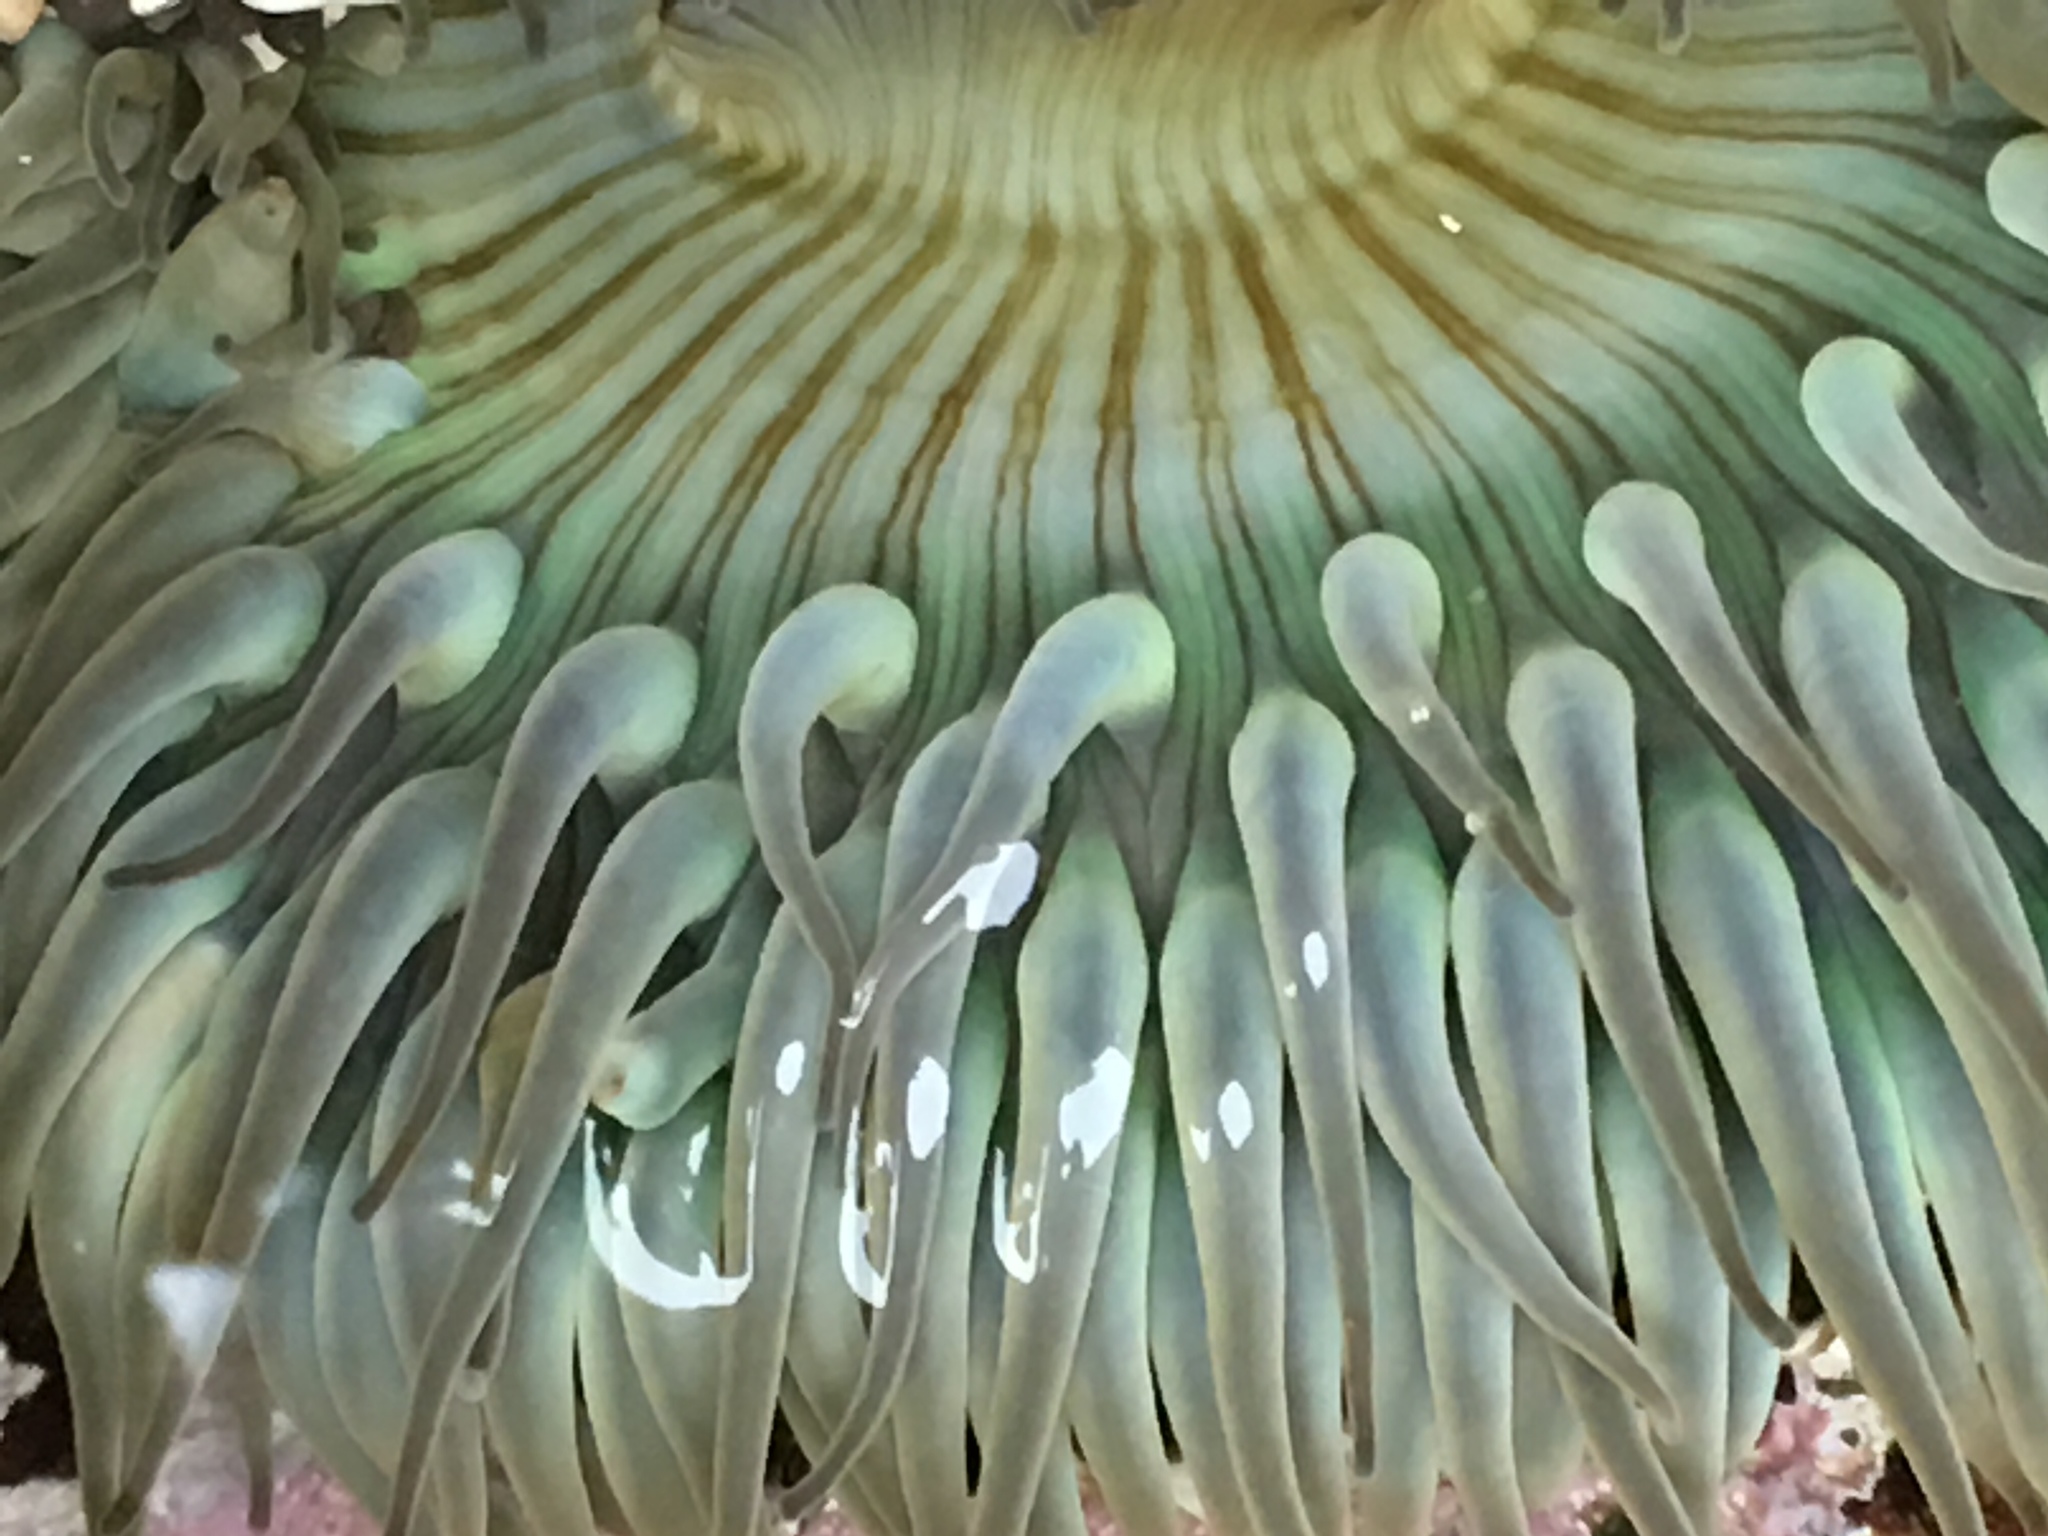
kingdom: Animalia
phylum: Cnidaria
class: Anthozoa
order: Actiniaria
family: Actiniidae
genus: Anthopleura
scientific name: Anthopleura sola
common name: Sun anemone
